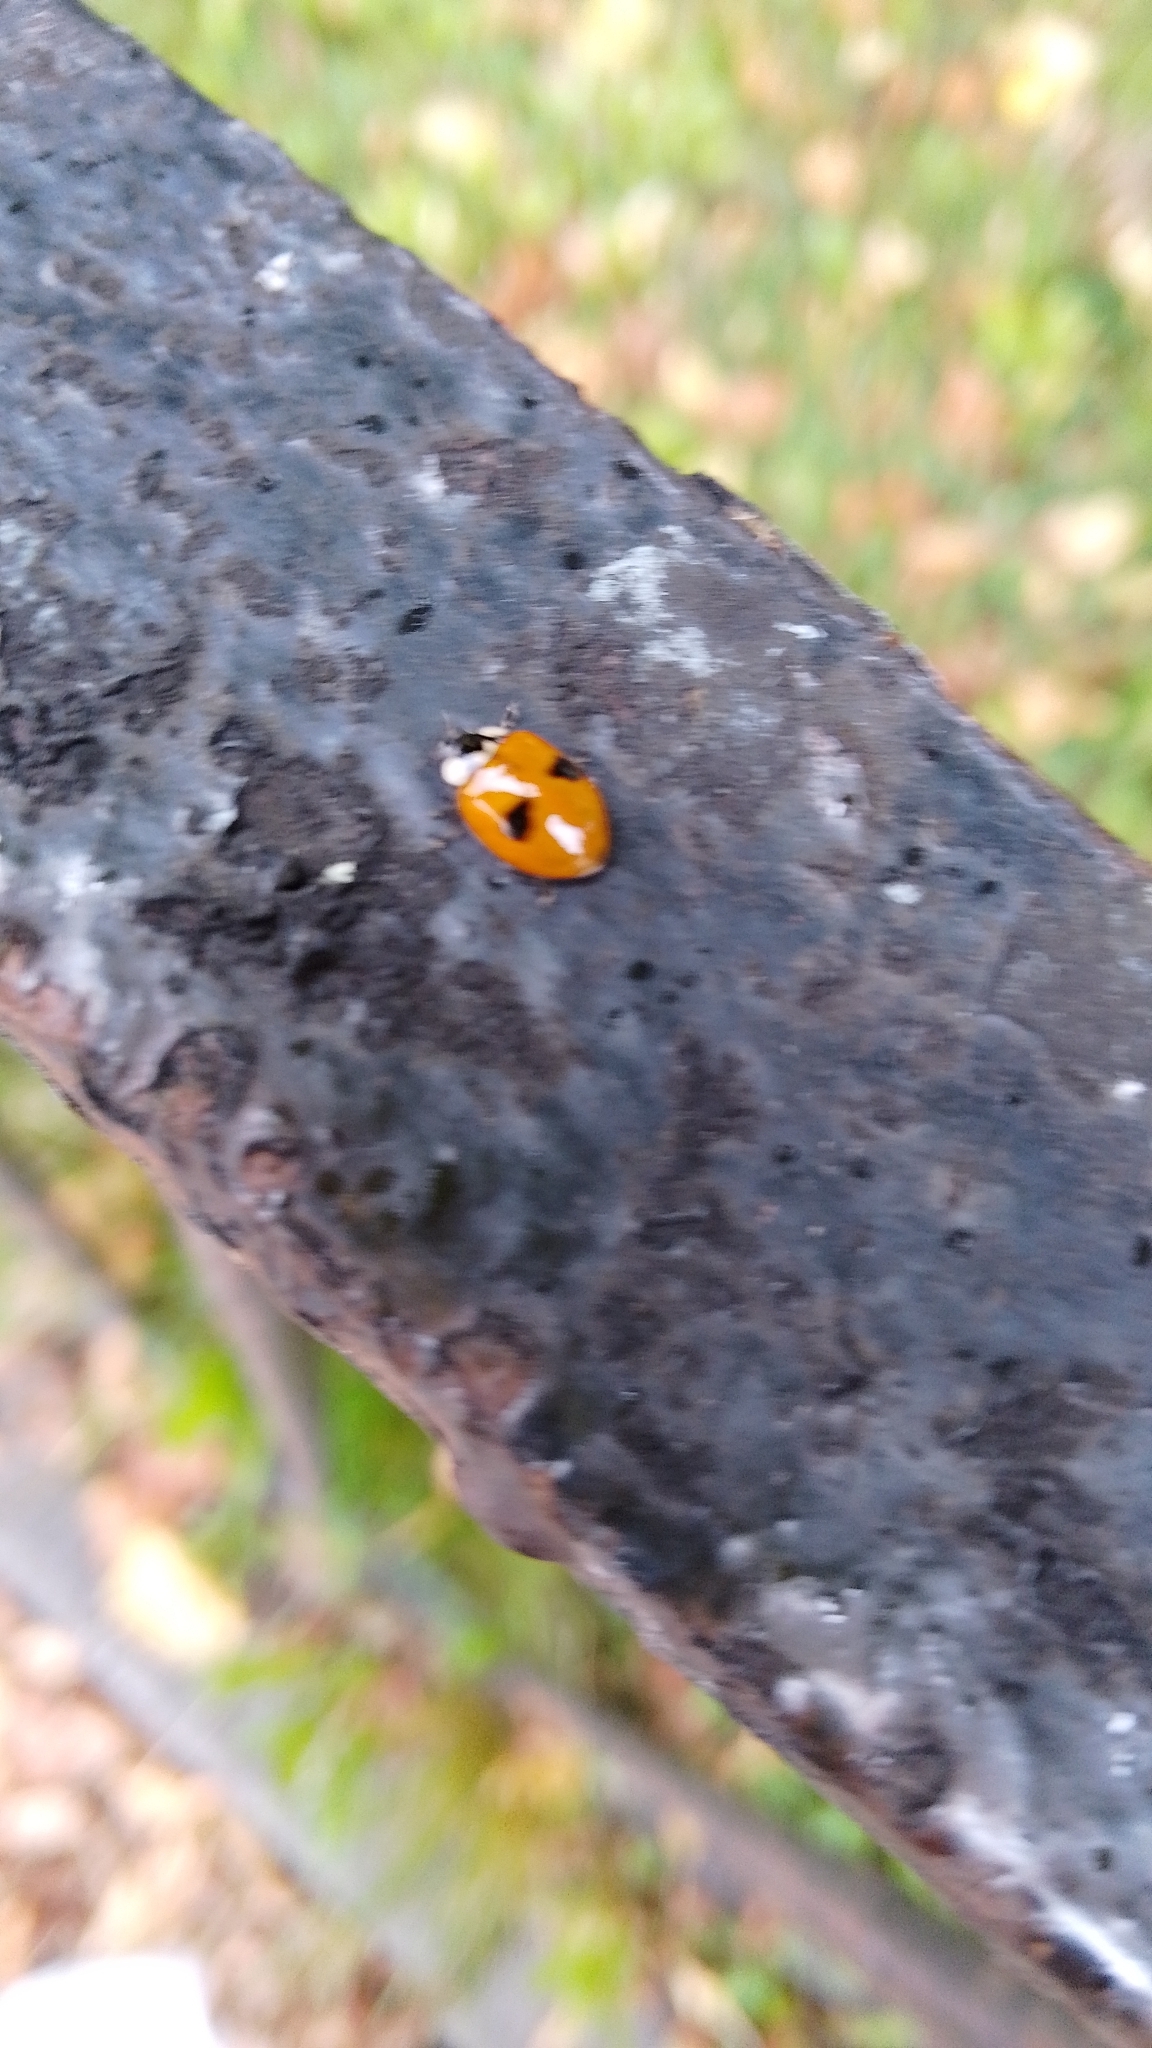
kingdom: Animalia
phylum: Arthropoda
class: Insecta
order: Coleoptera
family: Coccinellidae
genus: Adalia
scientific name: Adalia bipunctata
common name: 2-spot ladybird
